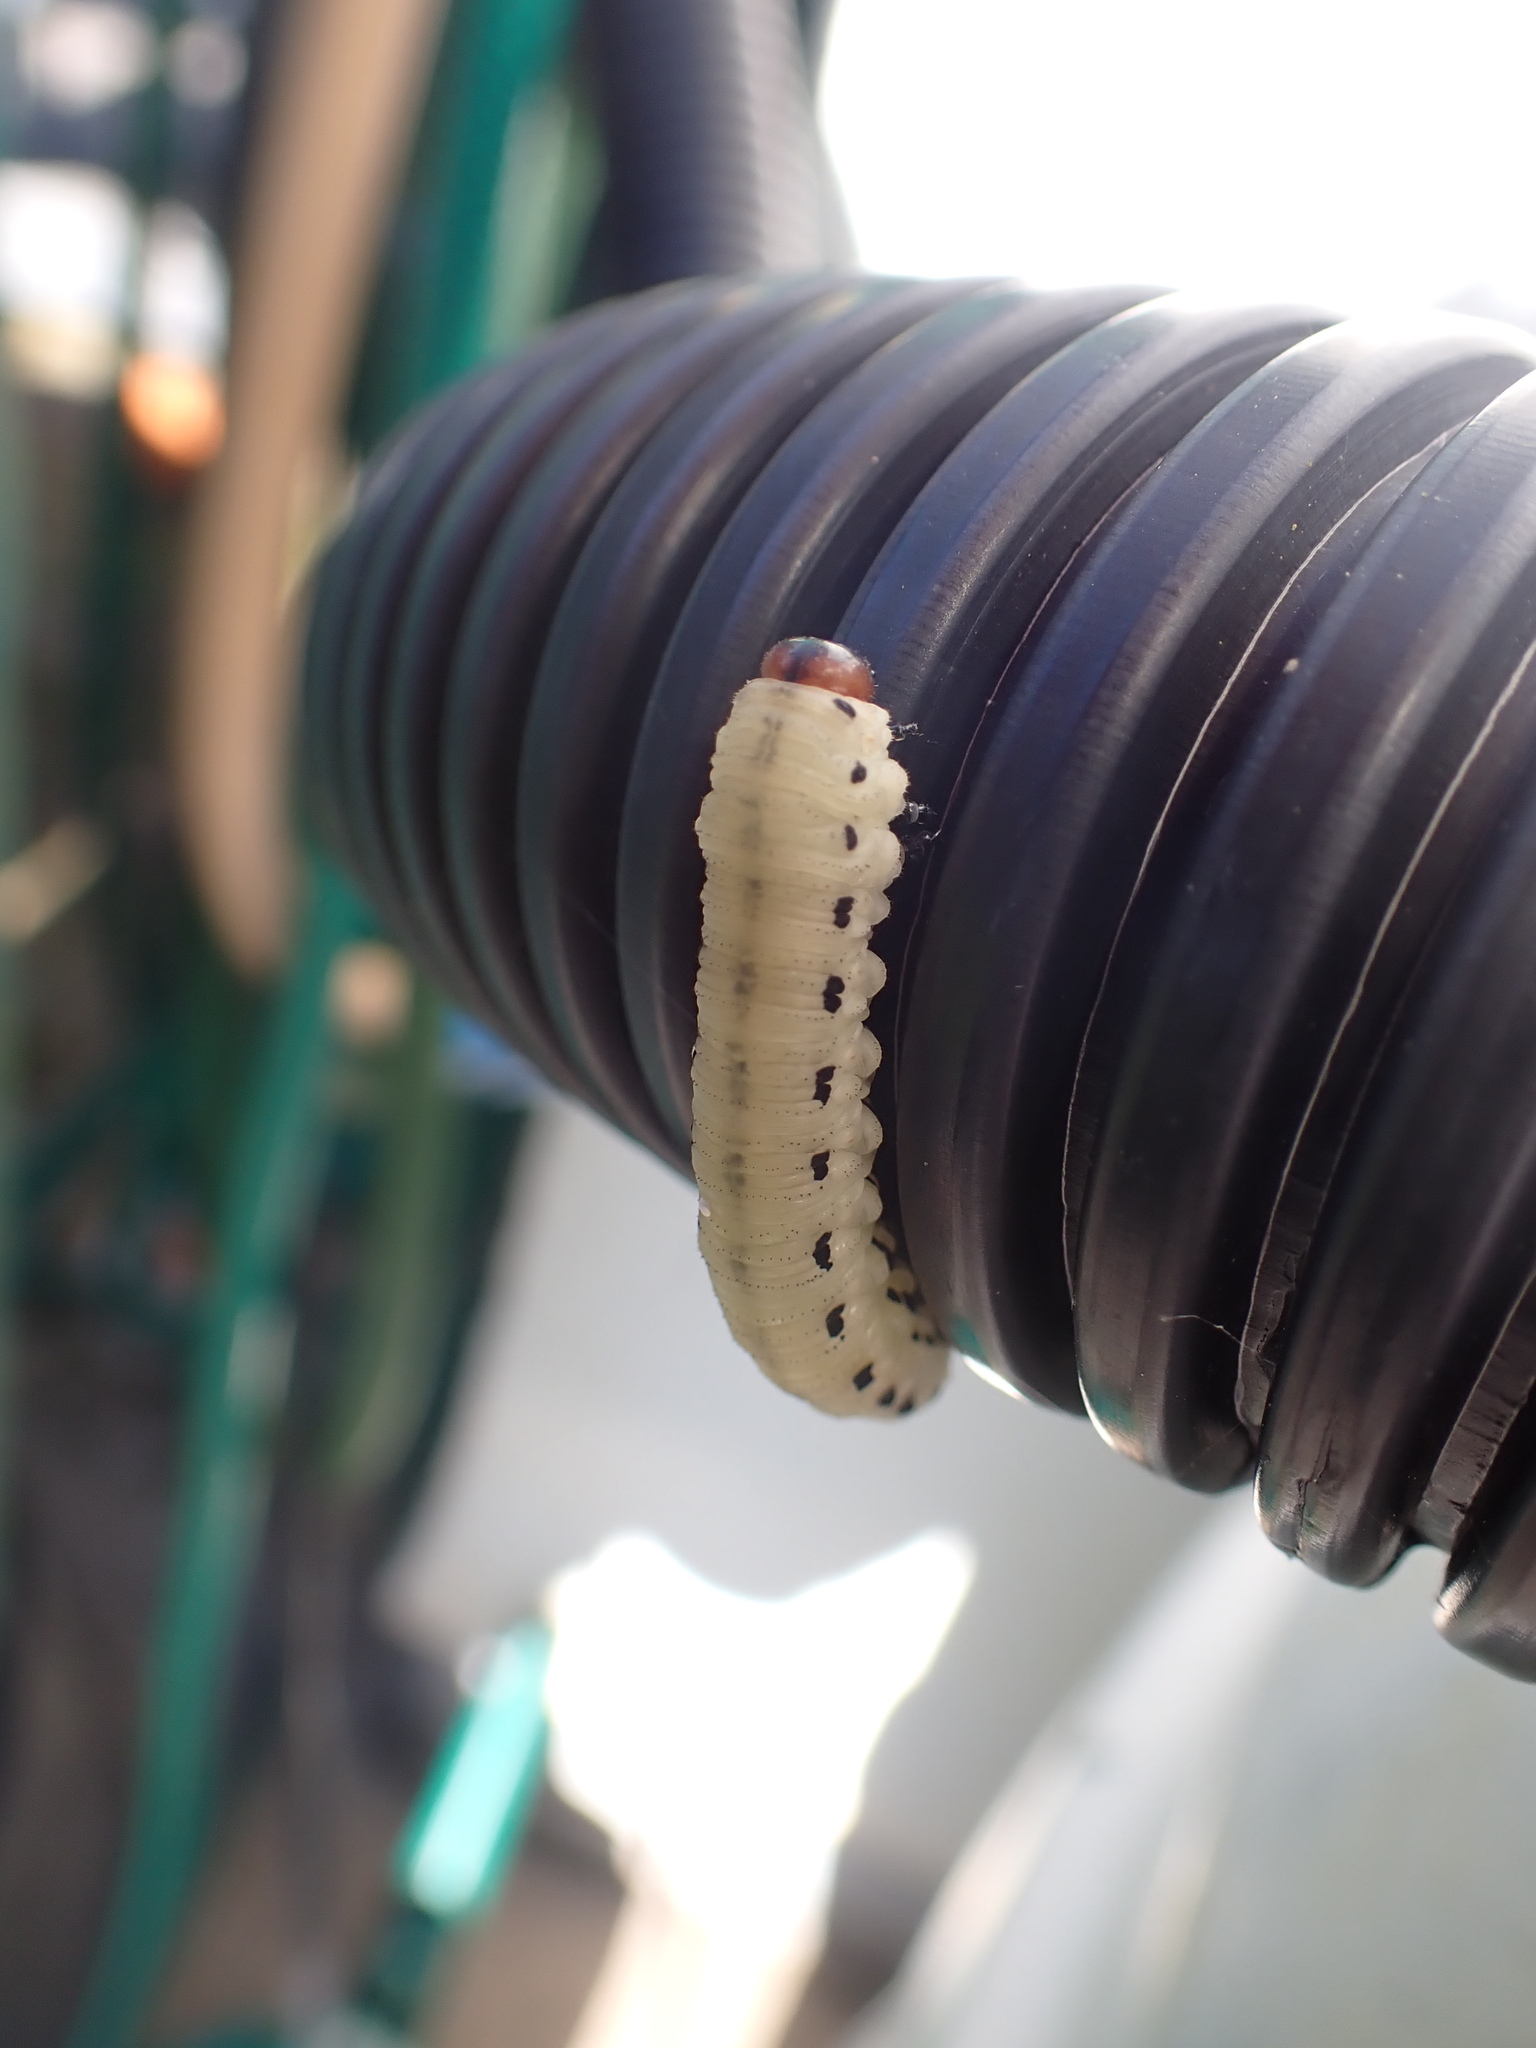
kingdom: Animalia
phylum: Arthropoda
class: Insecta
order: Hymenoptera
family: Diprionidae
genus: Diprion
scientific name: Diprion pini
